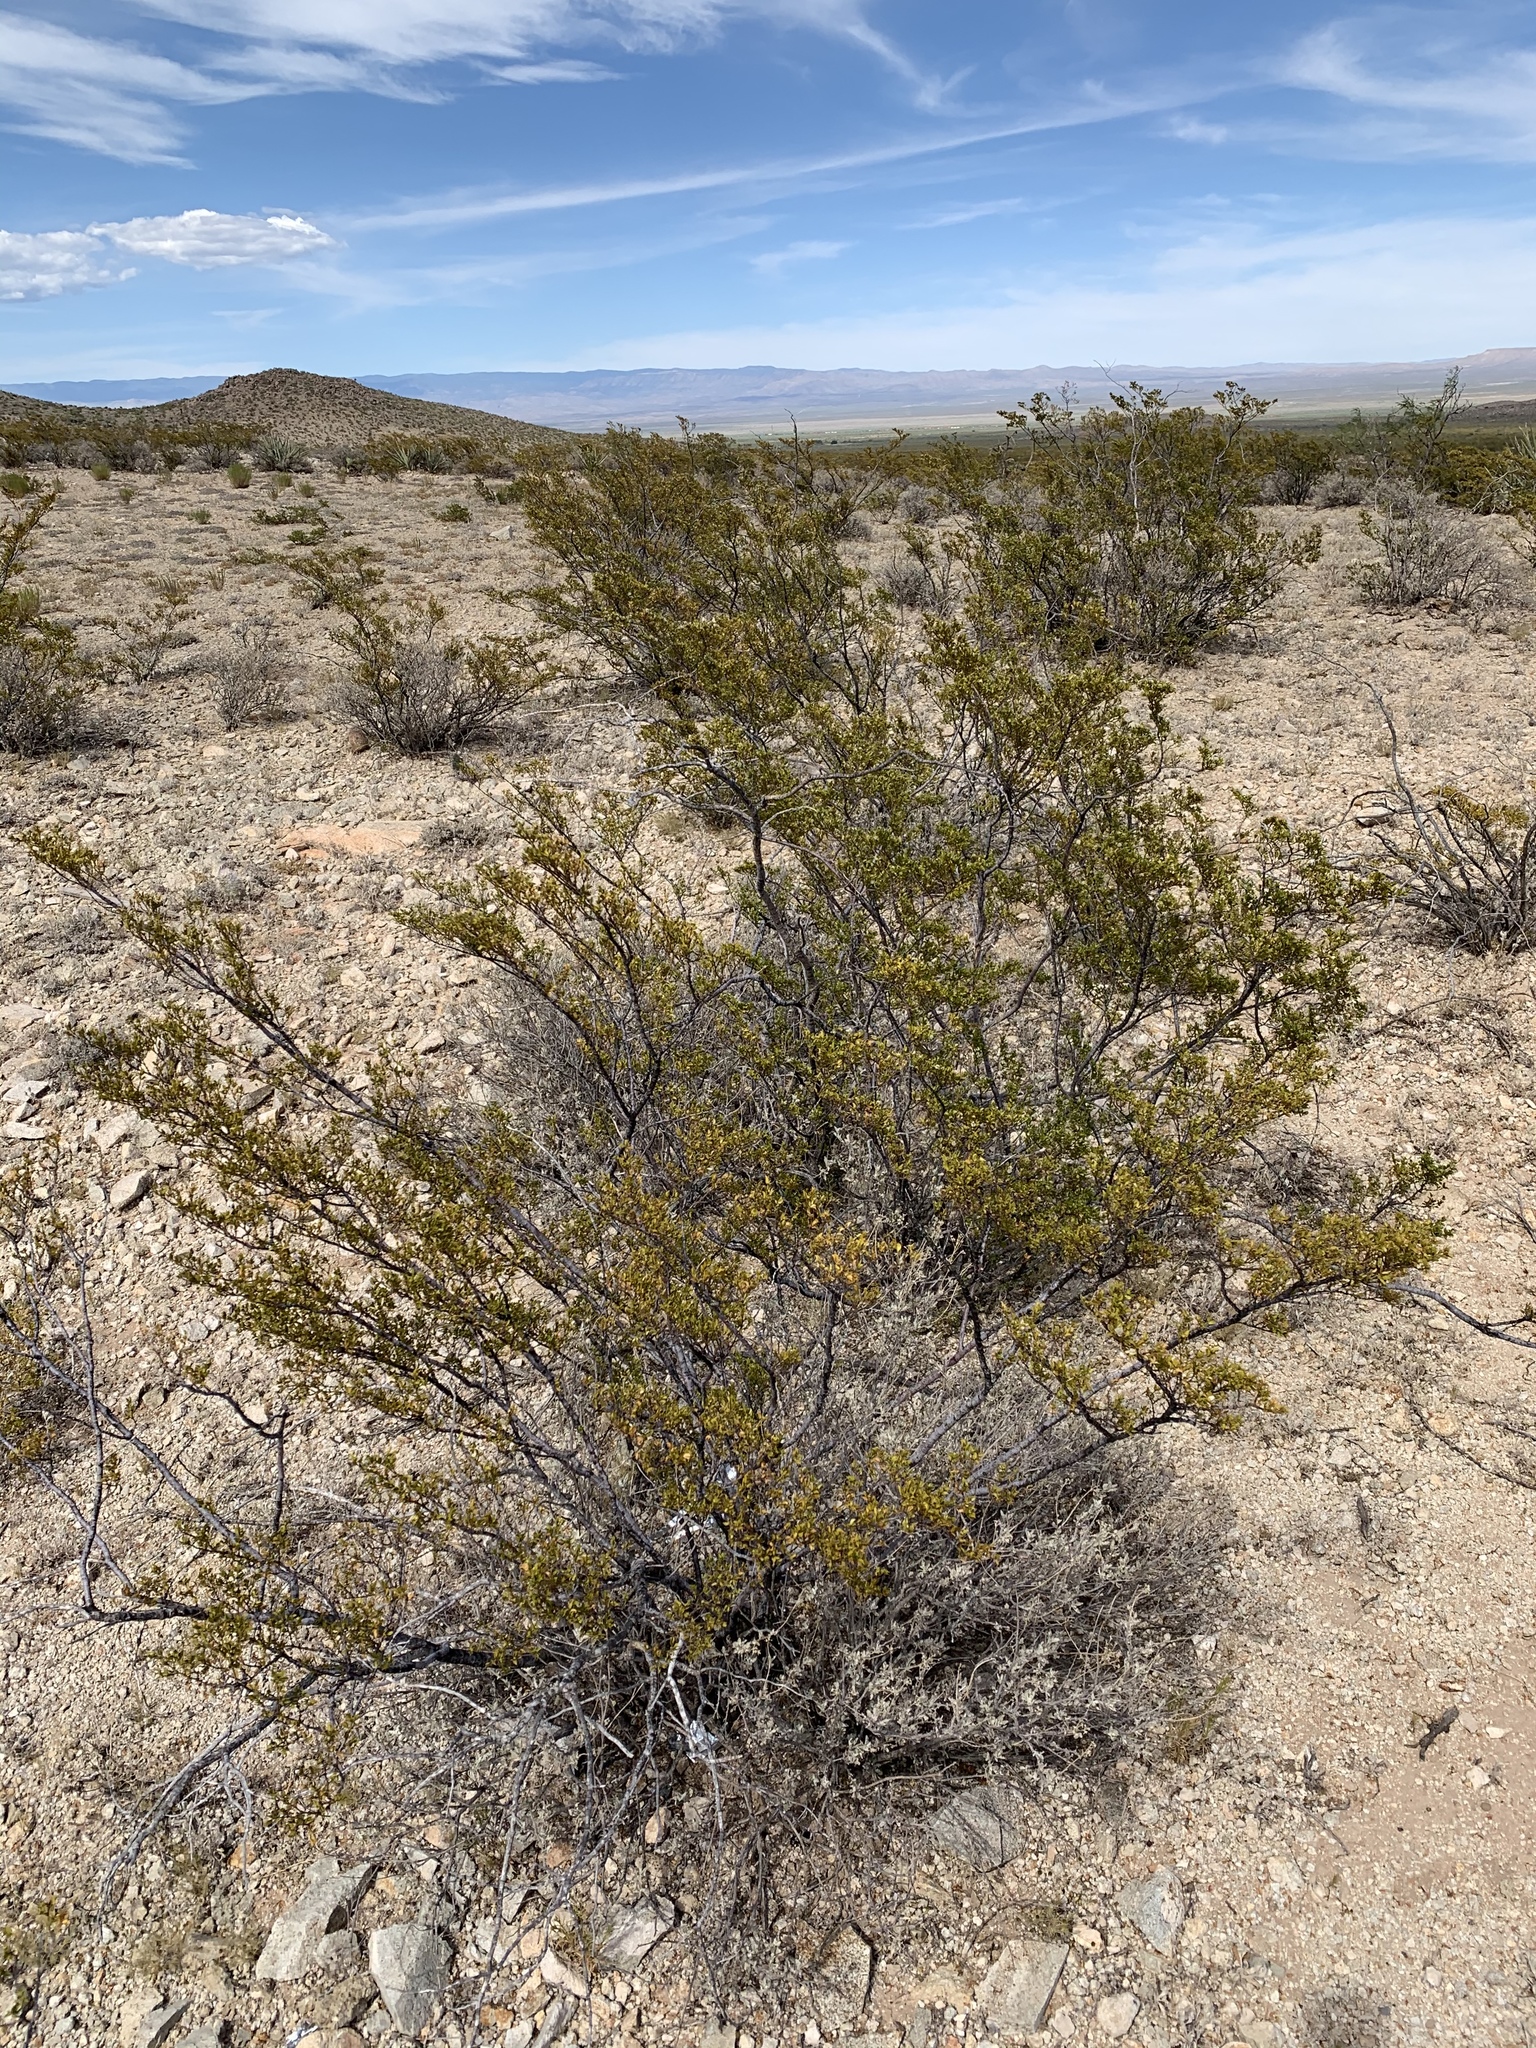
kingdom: Plantae
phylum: Tracheophyta
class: Magnoliopsida
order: Zygophyllales
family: Zygophyllaceae
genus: Larrea
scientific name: Larrea tridentata
